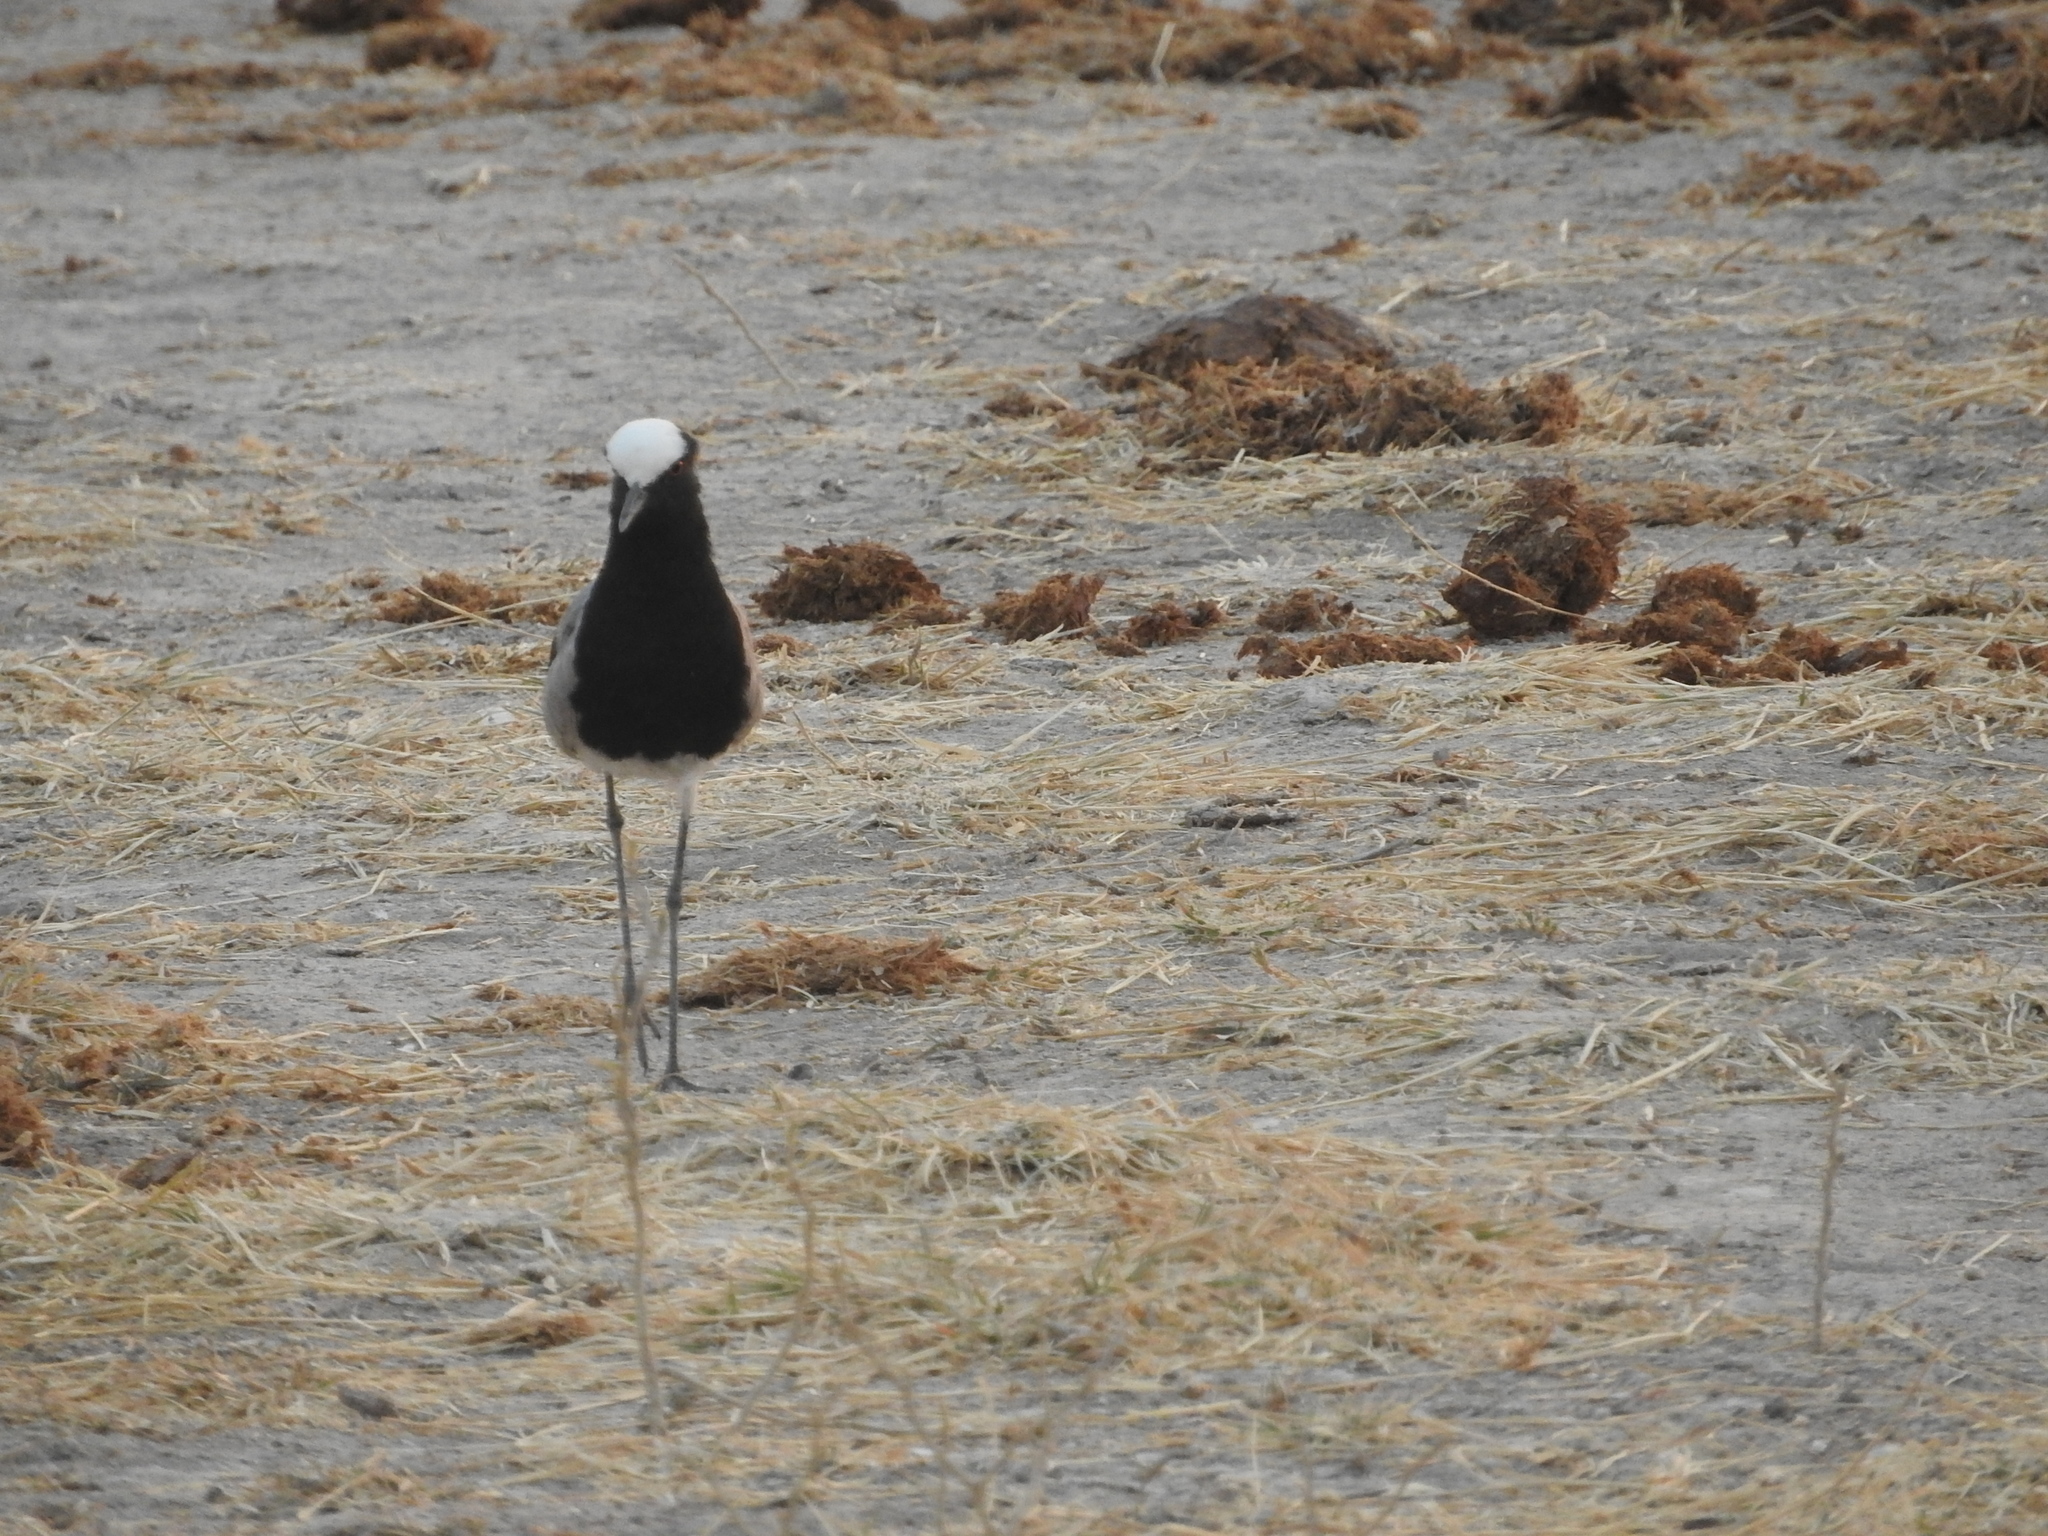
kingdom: Animalia
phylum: Chordata
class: Aves
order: Charadriiformes
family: Charadriidae
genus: Vanellus
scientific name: Vanellus armatus
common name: Blacksmith lapwing
